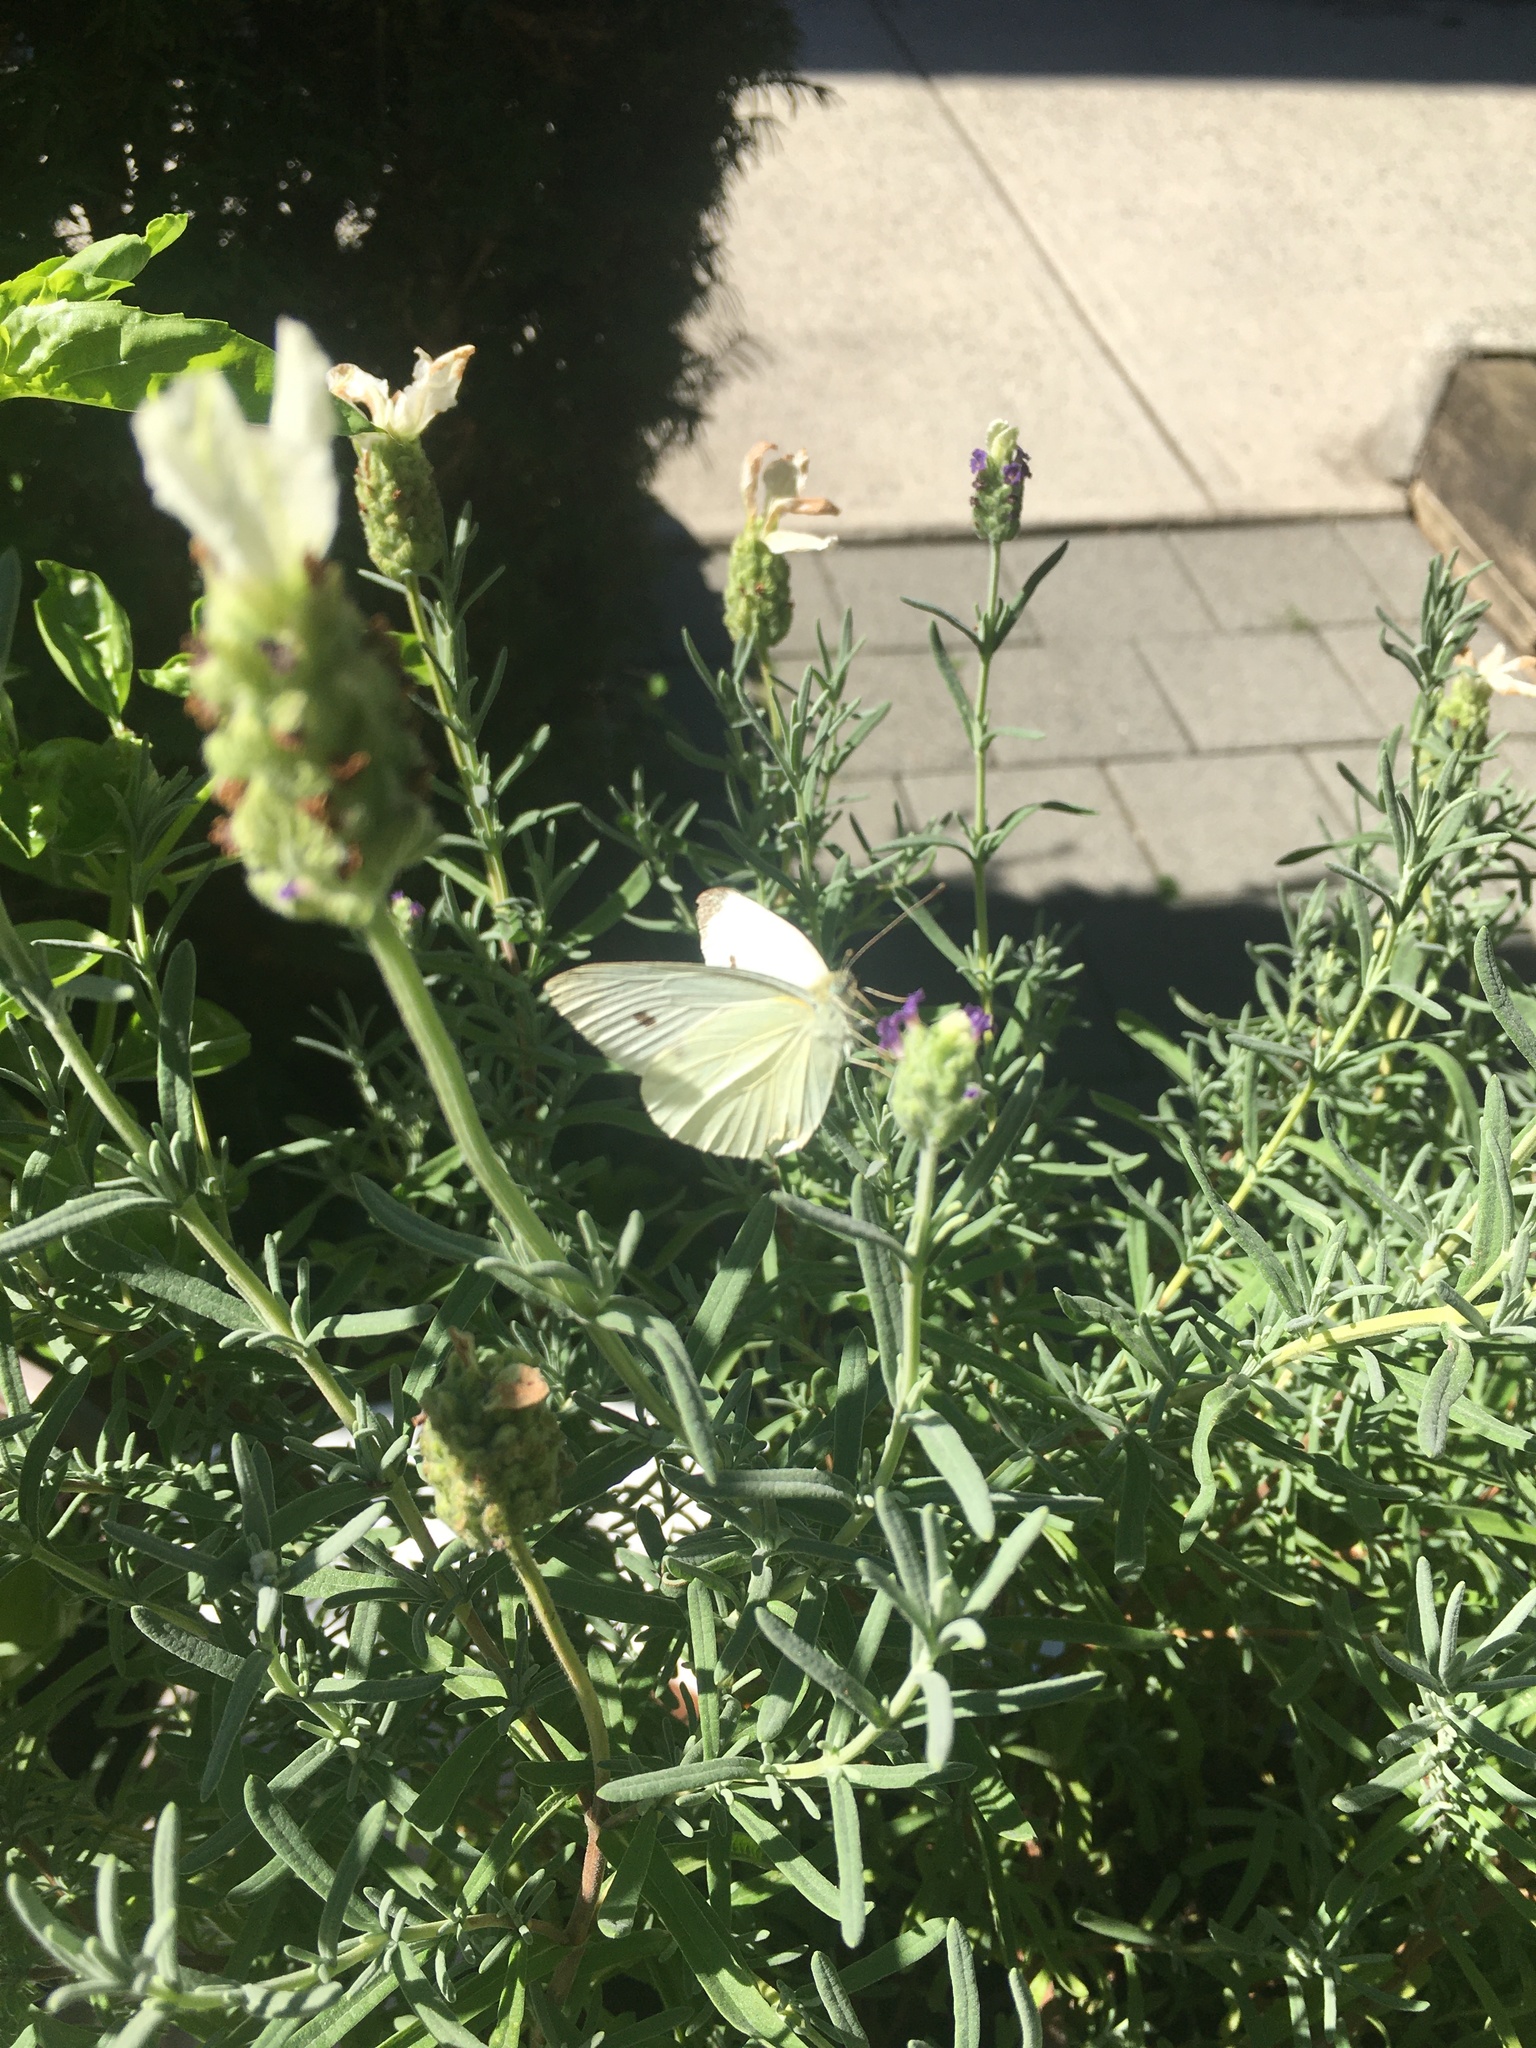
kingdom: Animalia
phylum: Arthropoda
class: Insecta
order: Lepidoptera
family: Pieridae
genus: Pieris
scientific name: Pieris rapae
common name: Small white
